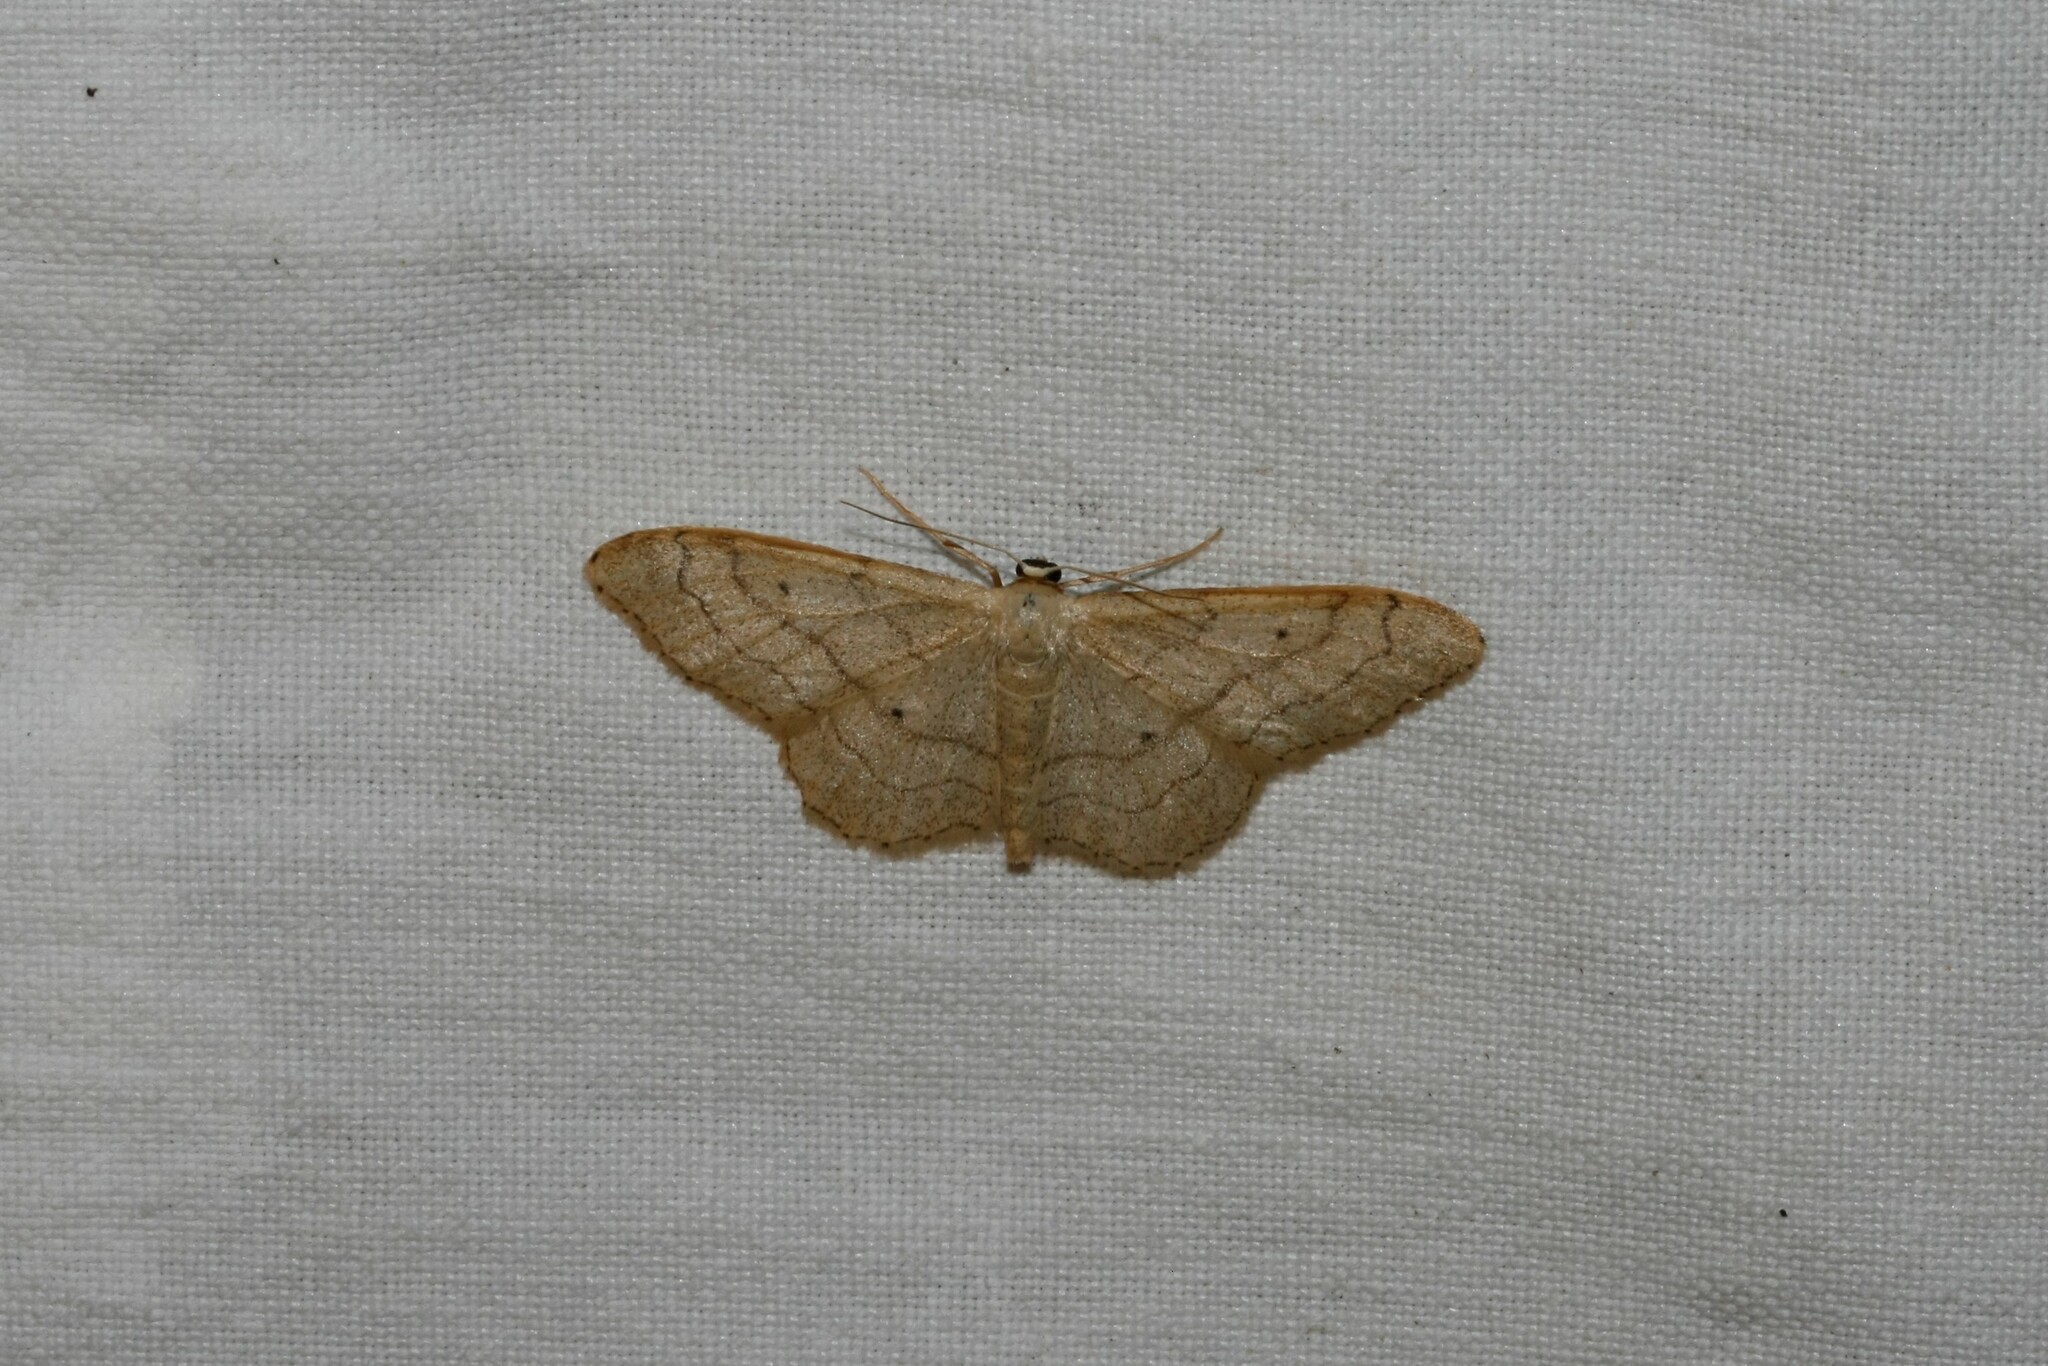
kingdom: Animalia
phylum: Arthropoda
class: Insecta
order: Lepidoptera
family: Geometridae
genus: Idaea
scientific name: Idaea aversata
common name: Riband wave
